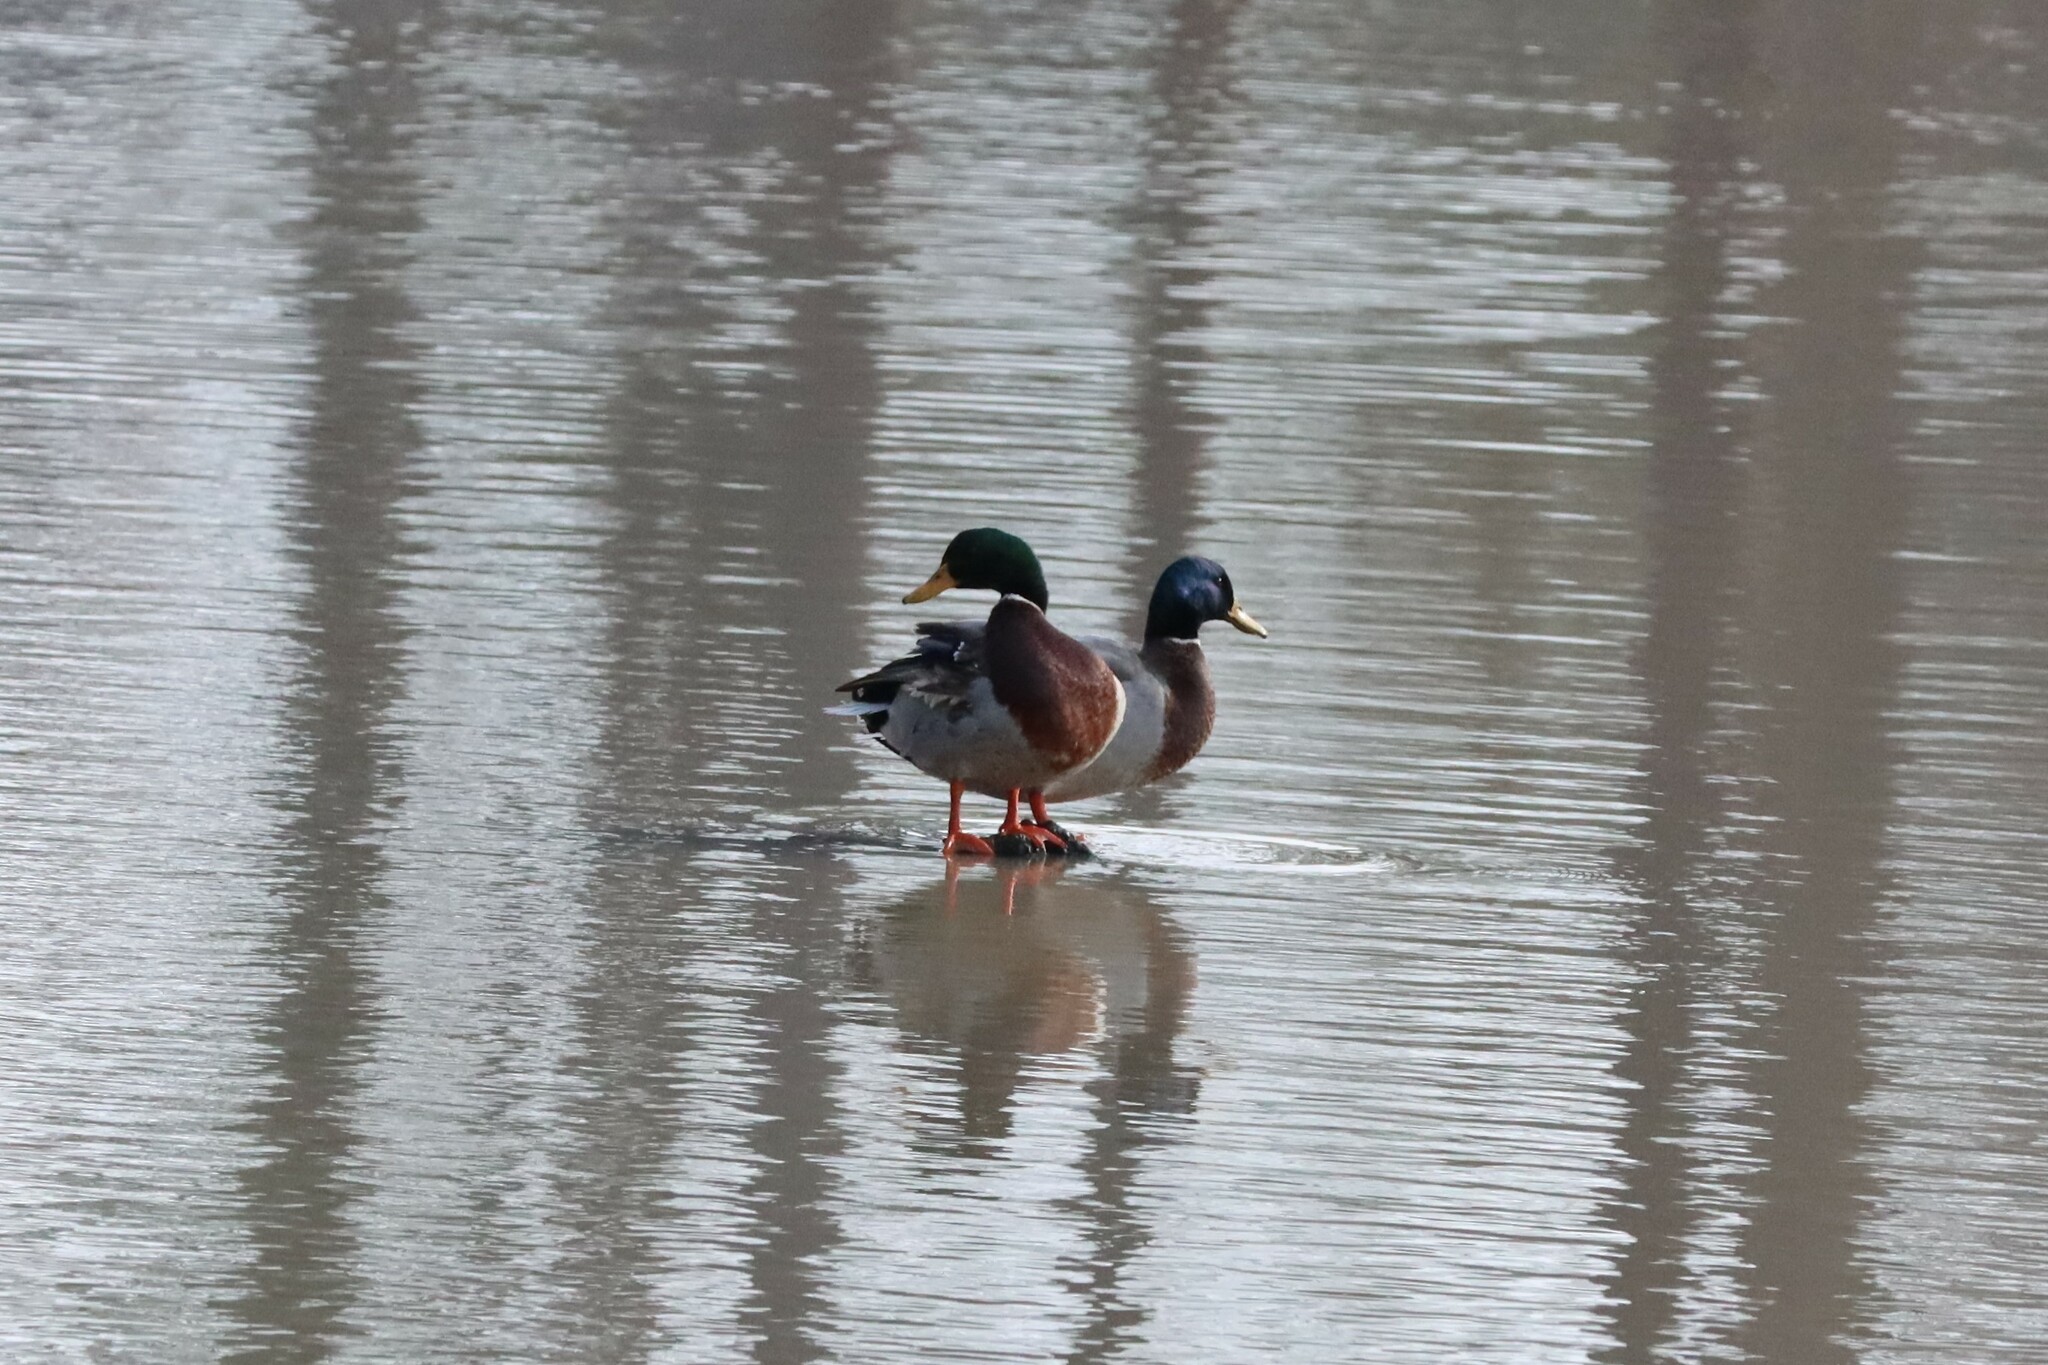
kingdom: Animalia
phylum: Chordata
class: Aves
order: Anseriformes
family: Anatidae
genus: Anas
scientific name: Anas platyrhynchos
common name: Mallard
